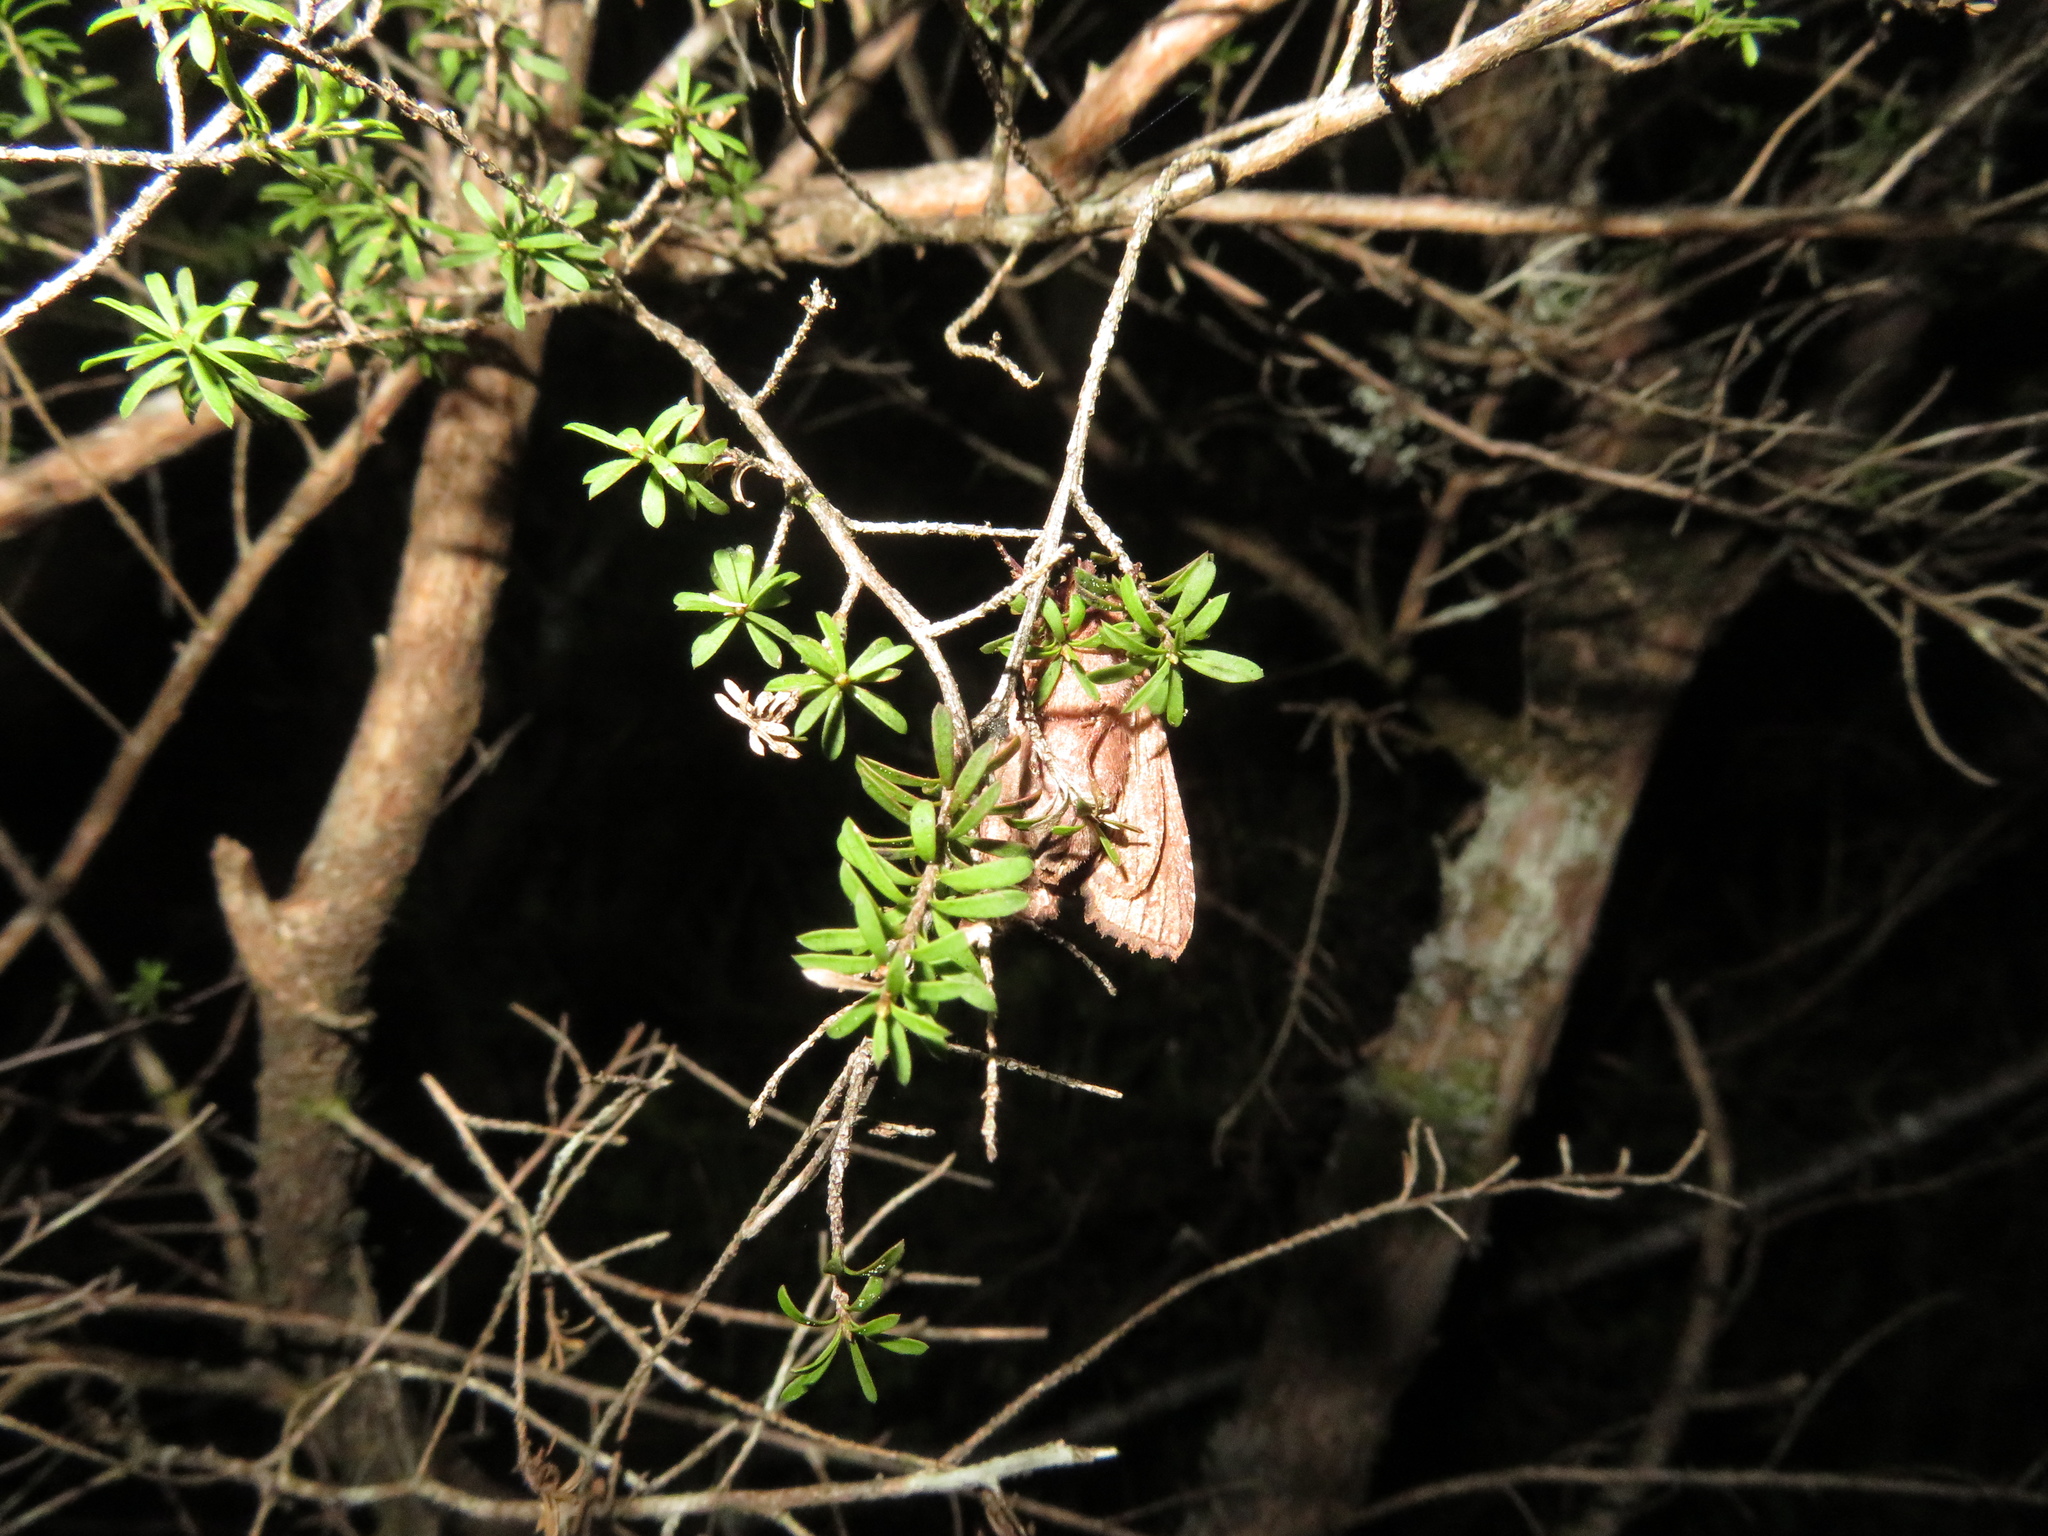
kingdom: Animalia
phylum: Arthropoda
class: Insecta
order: Lepidoptera
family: Noctuidae
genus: Meterana
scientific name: Meterana diatmeta
